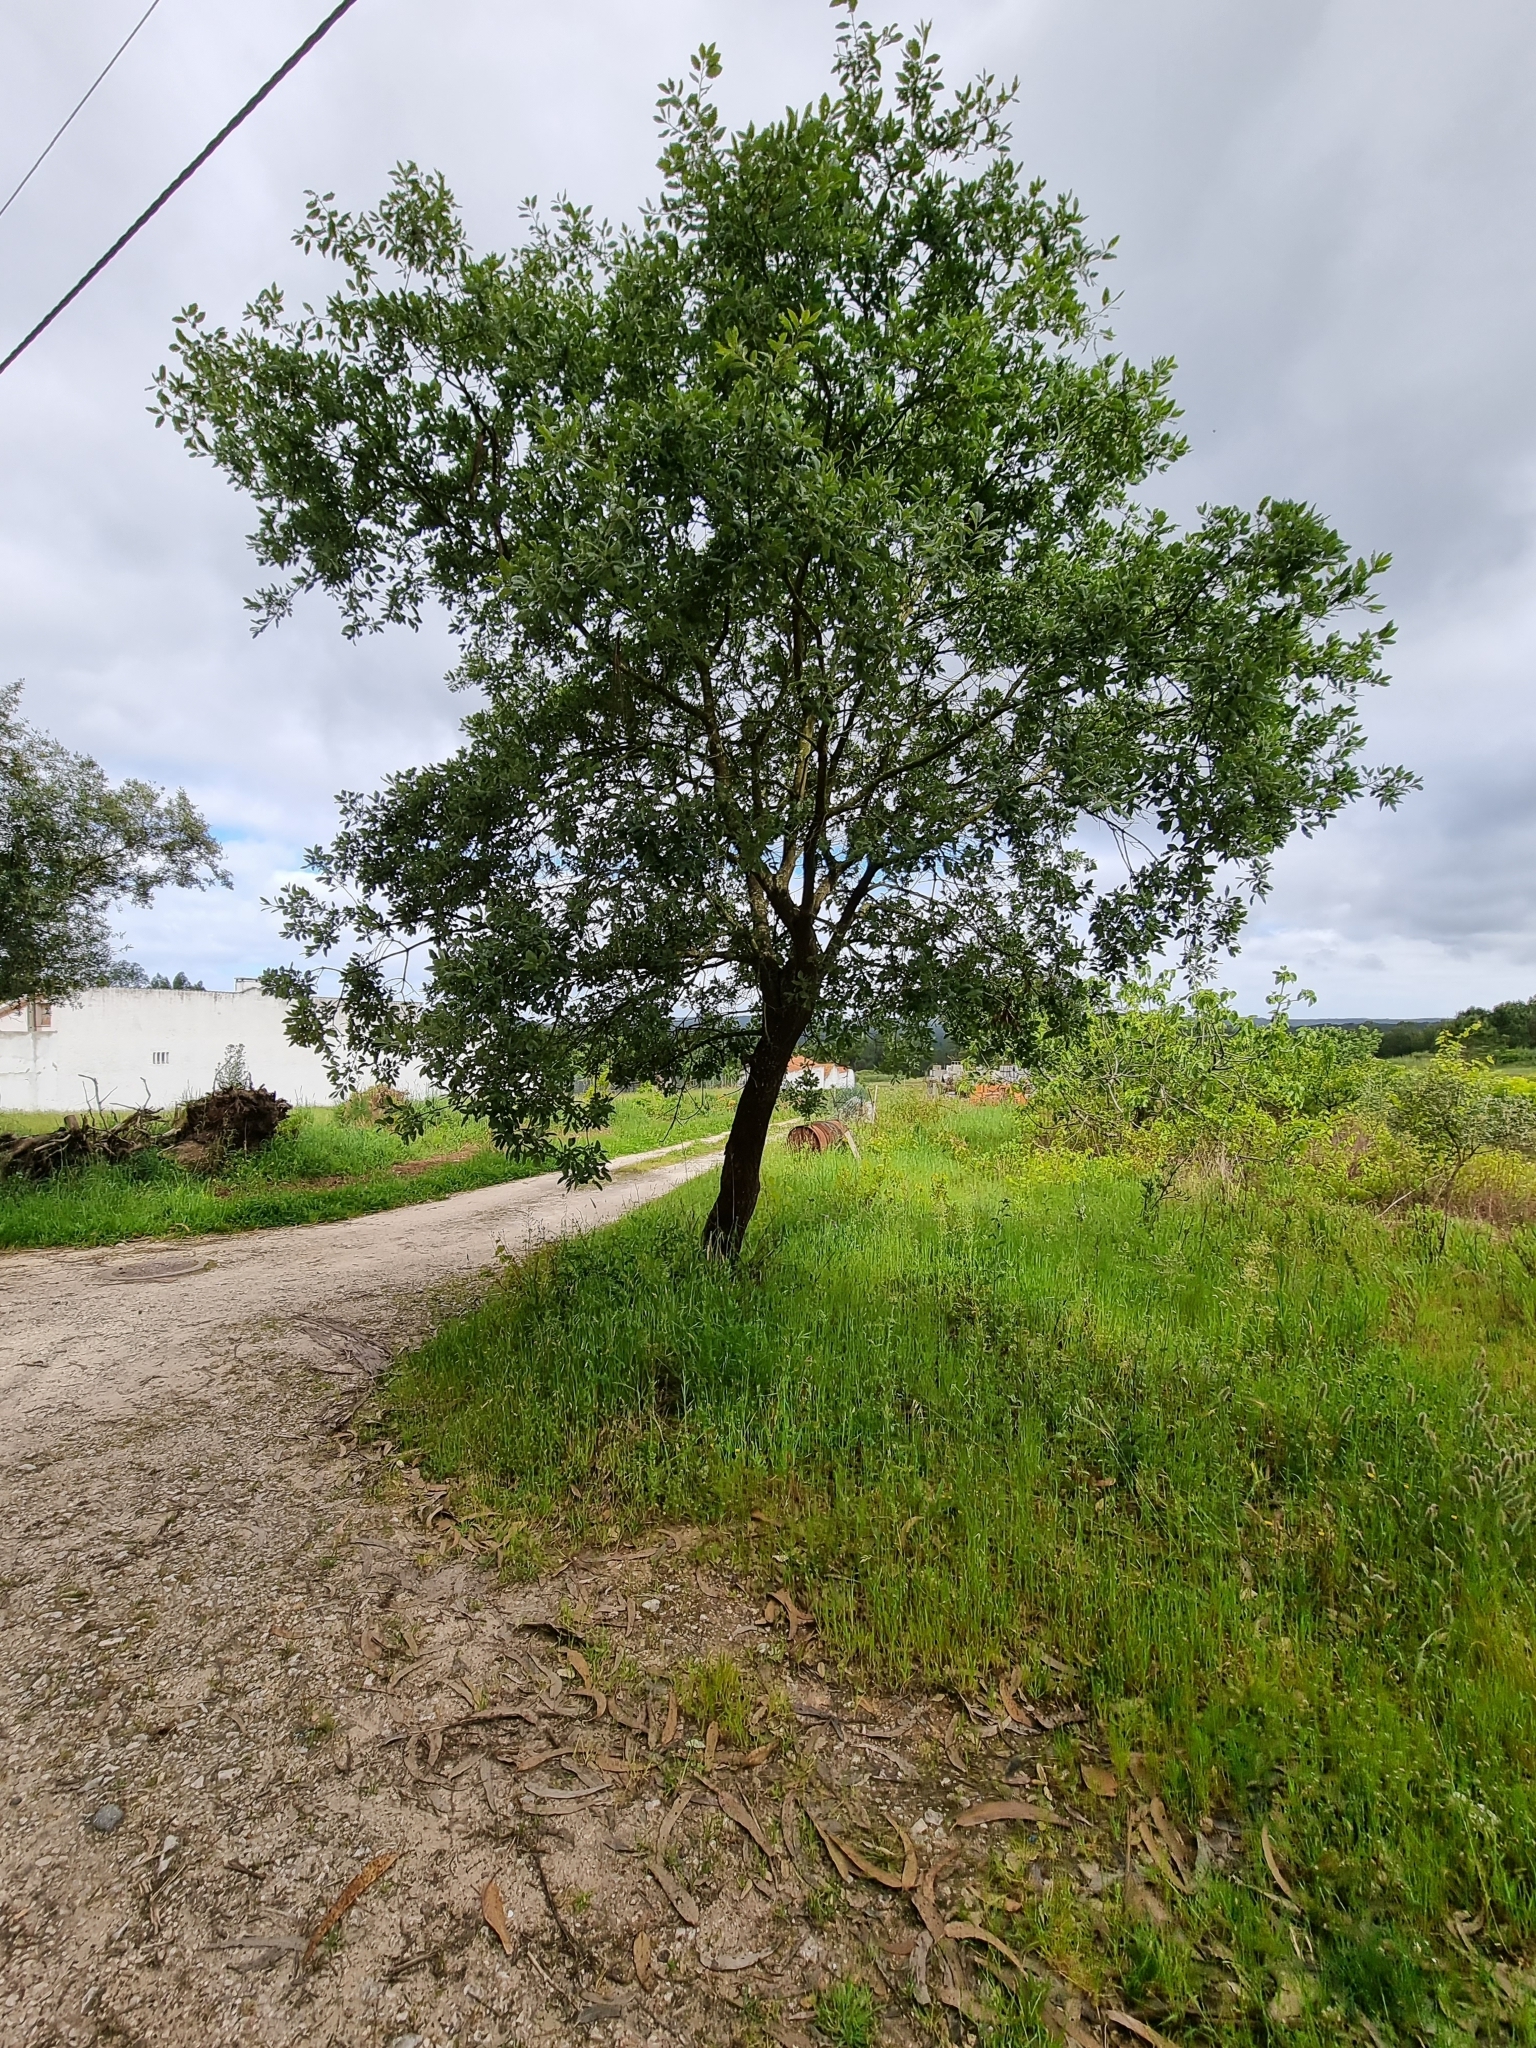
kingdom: Plantae
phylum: Tracheophyta
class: Magnoliopsida
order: Fagales
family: Fagaceae
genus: Quercus
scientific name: Quercus faginea
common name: Gall oak tree
